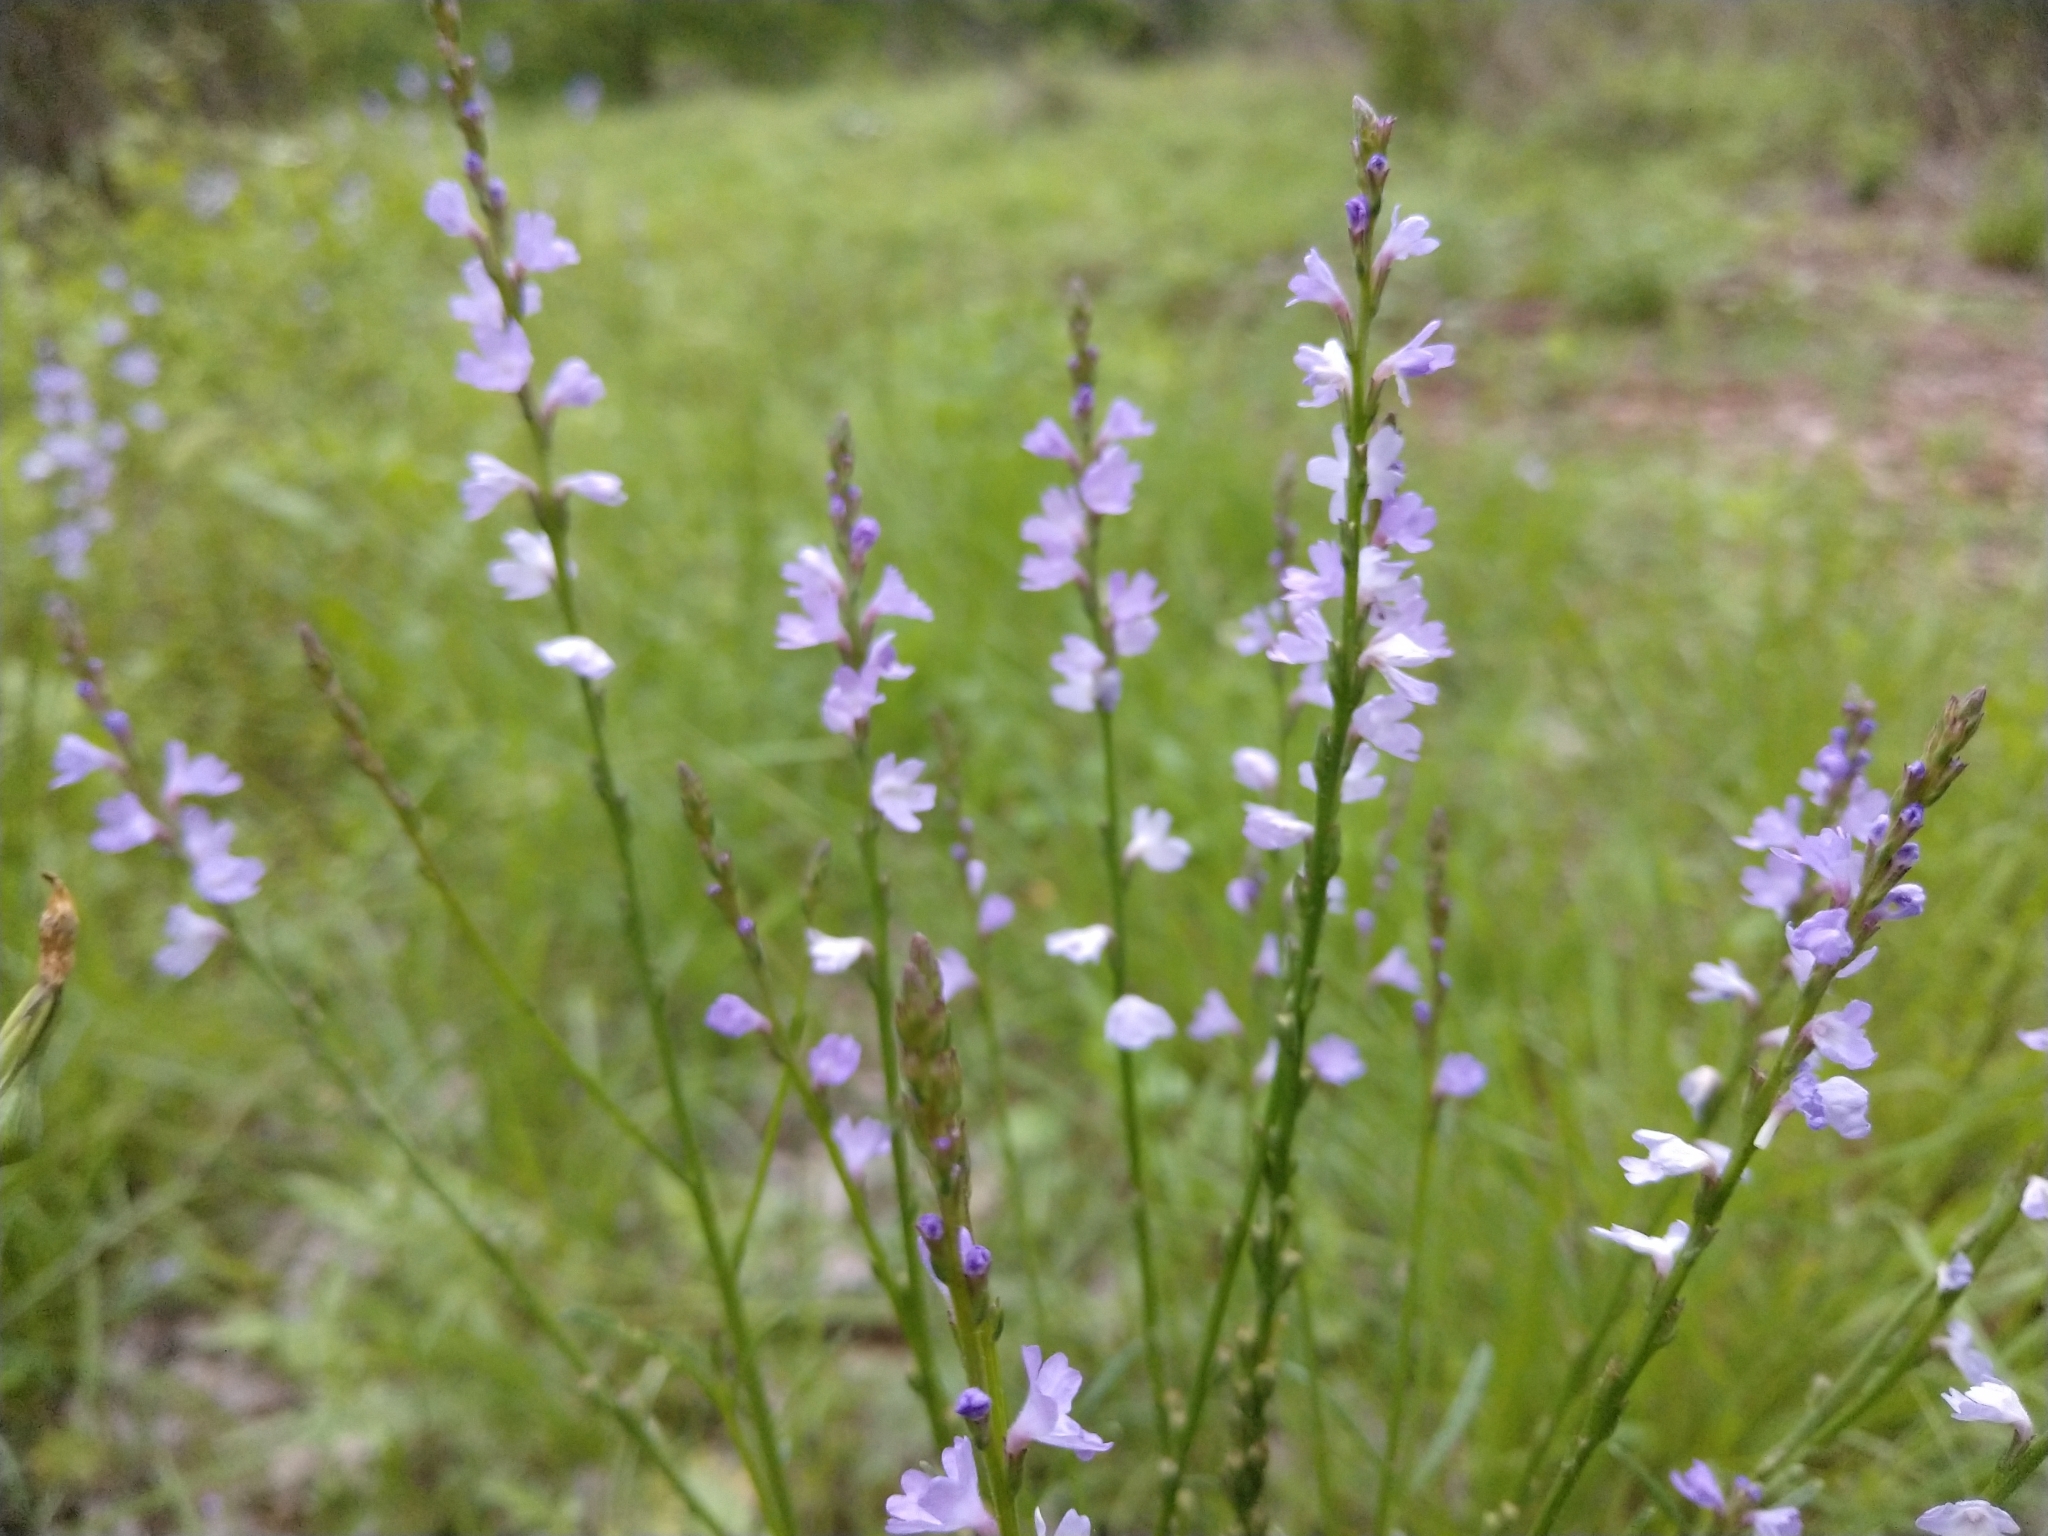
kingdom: Plantae
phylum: Tracheophyta
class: Magnoliopsida
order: Lamiales
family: Verbenaceae
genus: Verbena
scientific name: Verbena halei
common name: Texas vervain
